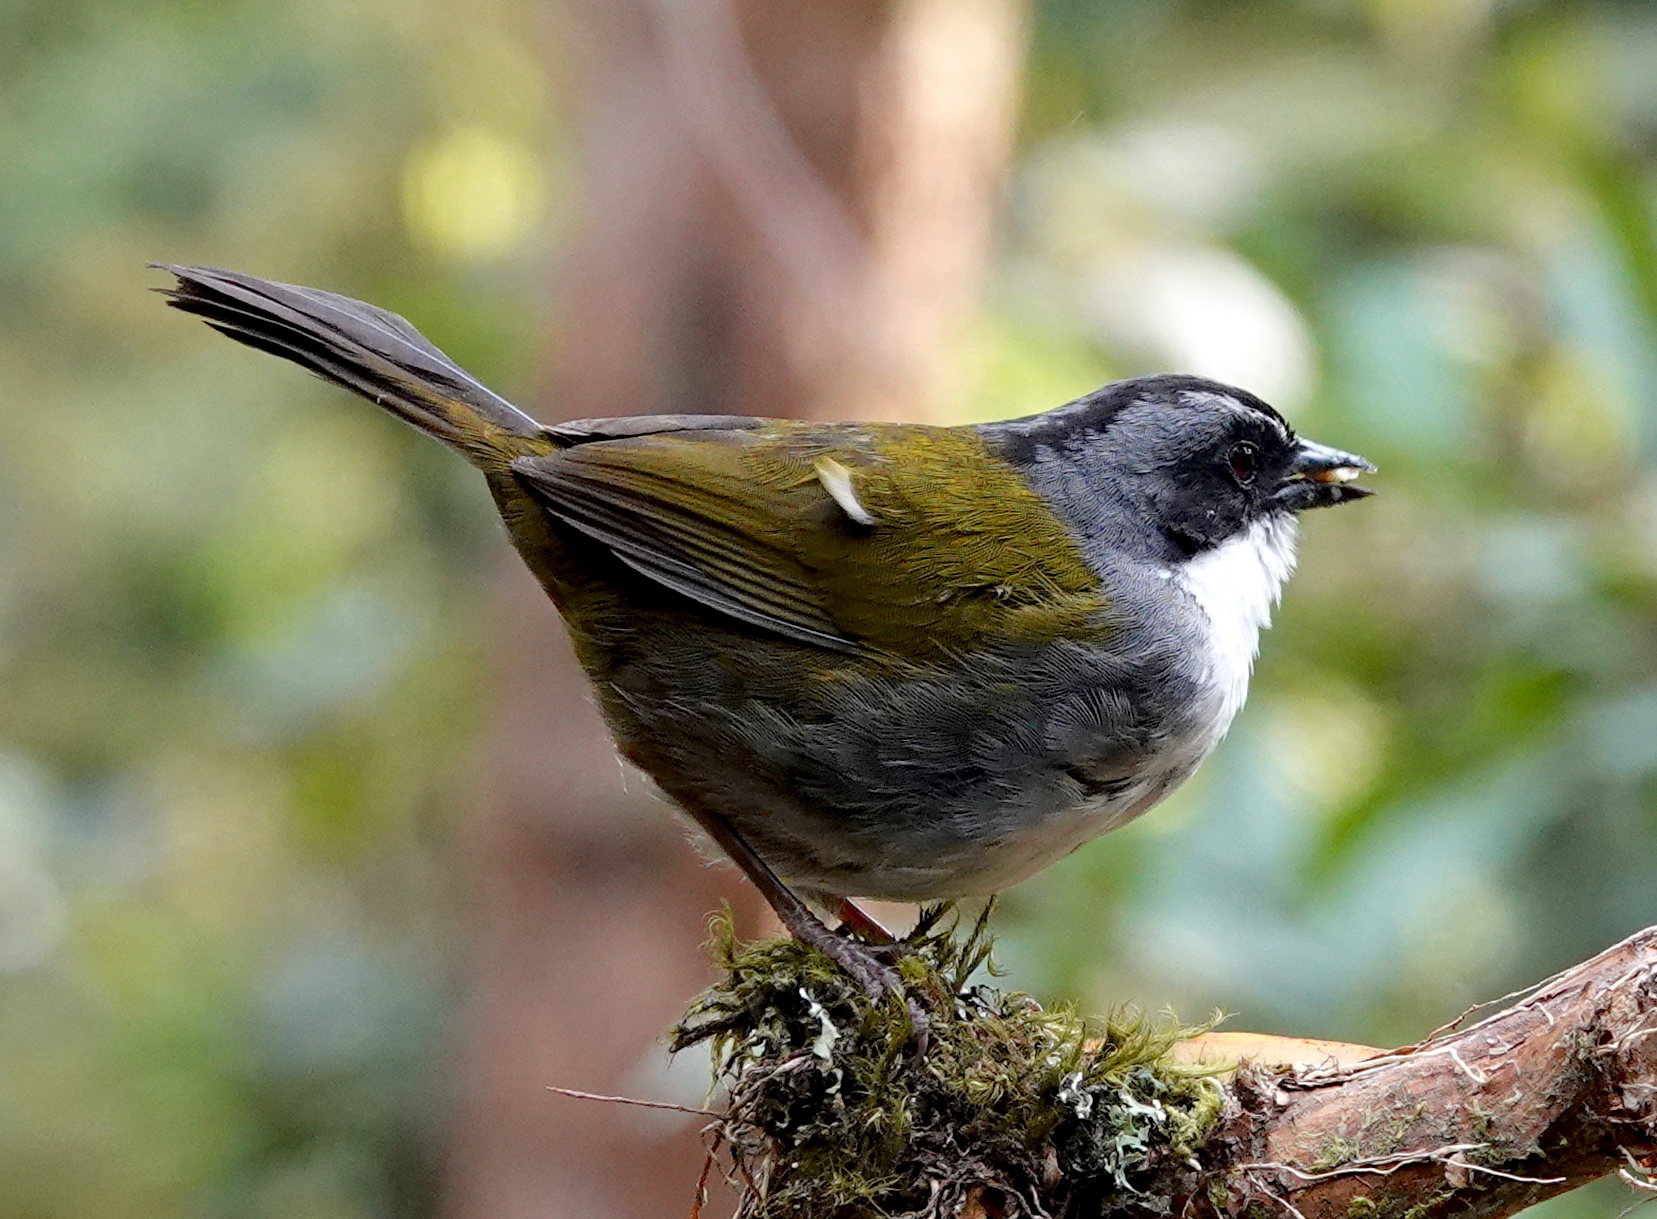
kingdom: Animalia
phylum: Chordata
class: Aves
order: Passeriformes
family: Passerellidae
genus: Arremon
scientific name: Arremon assimilis
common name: Grey-browed brushfinch
